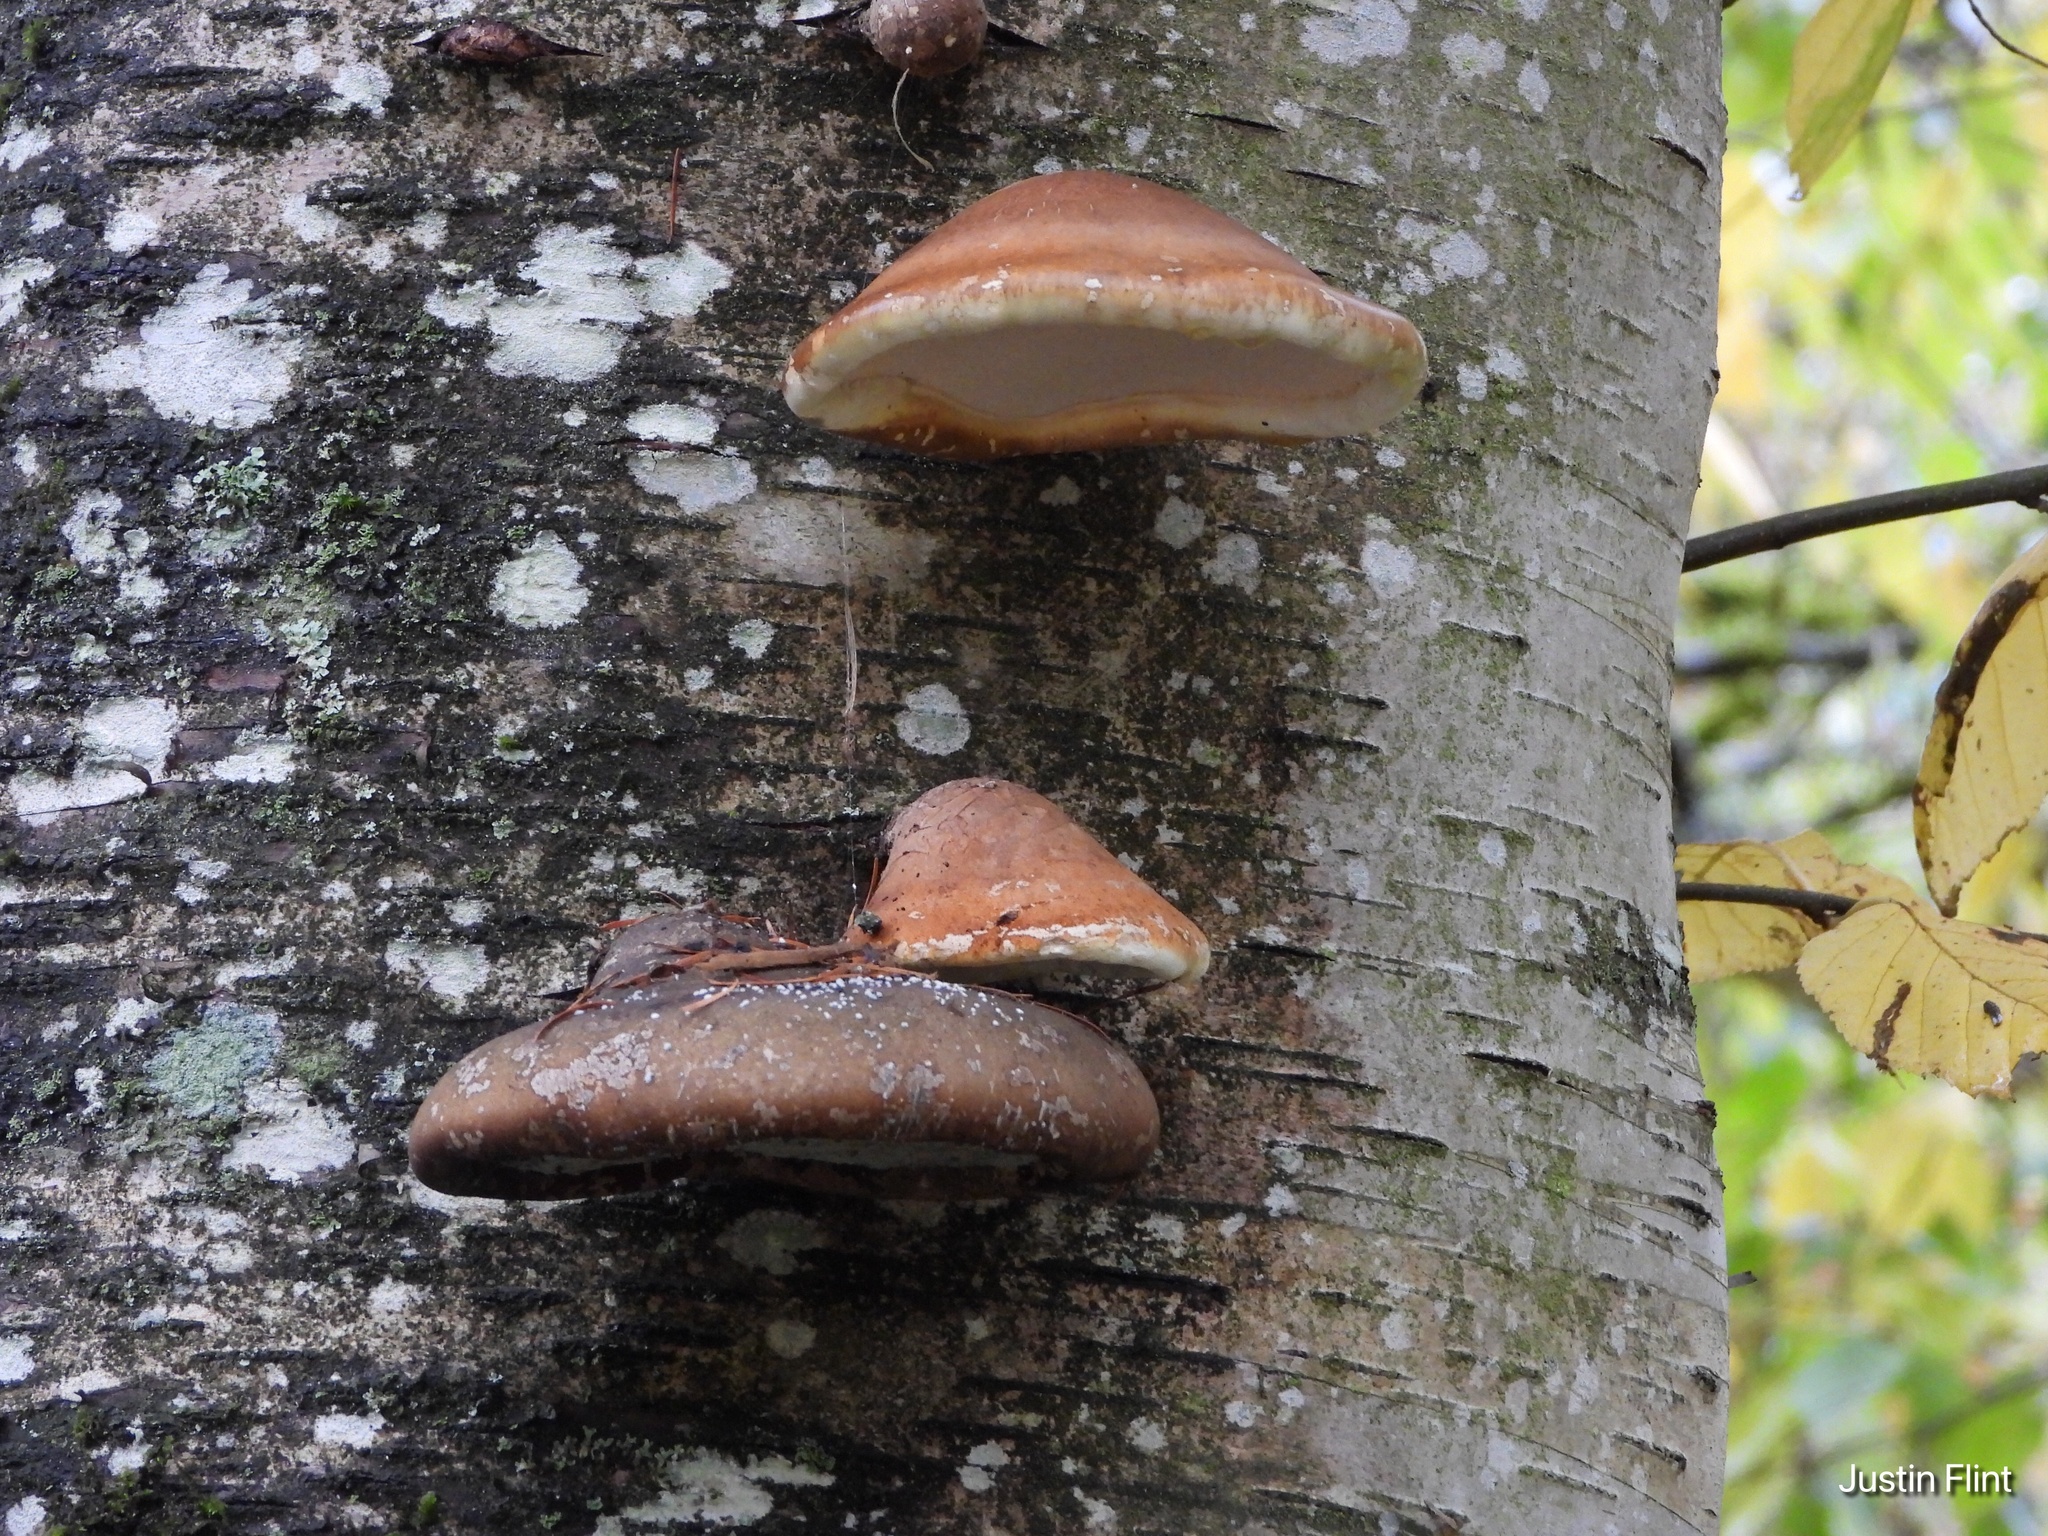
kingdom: Fungi
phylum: Basidiomycota
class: Agaricomycetes
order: Polyporales
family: Fomitopsidaceae
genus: Fomitopsis
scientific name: Fomitopsis betulina
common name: Birch polypore
